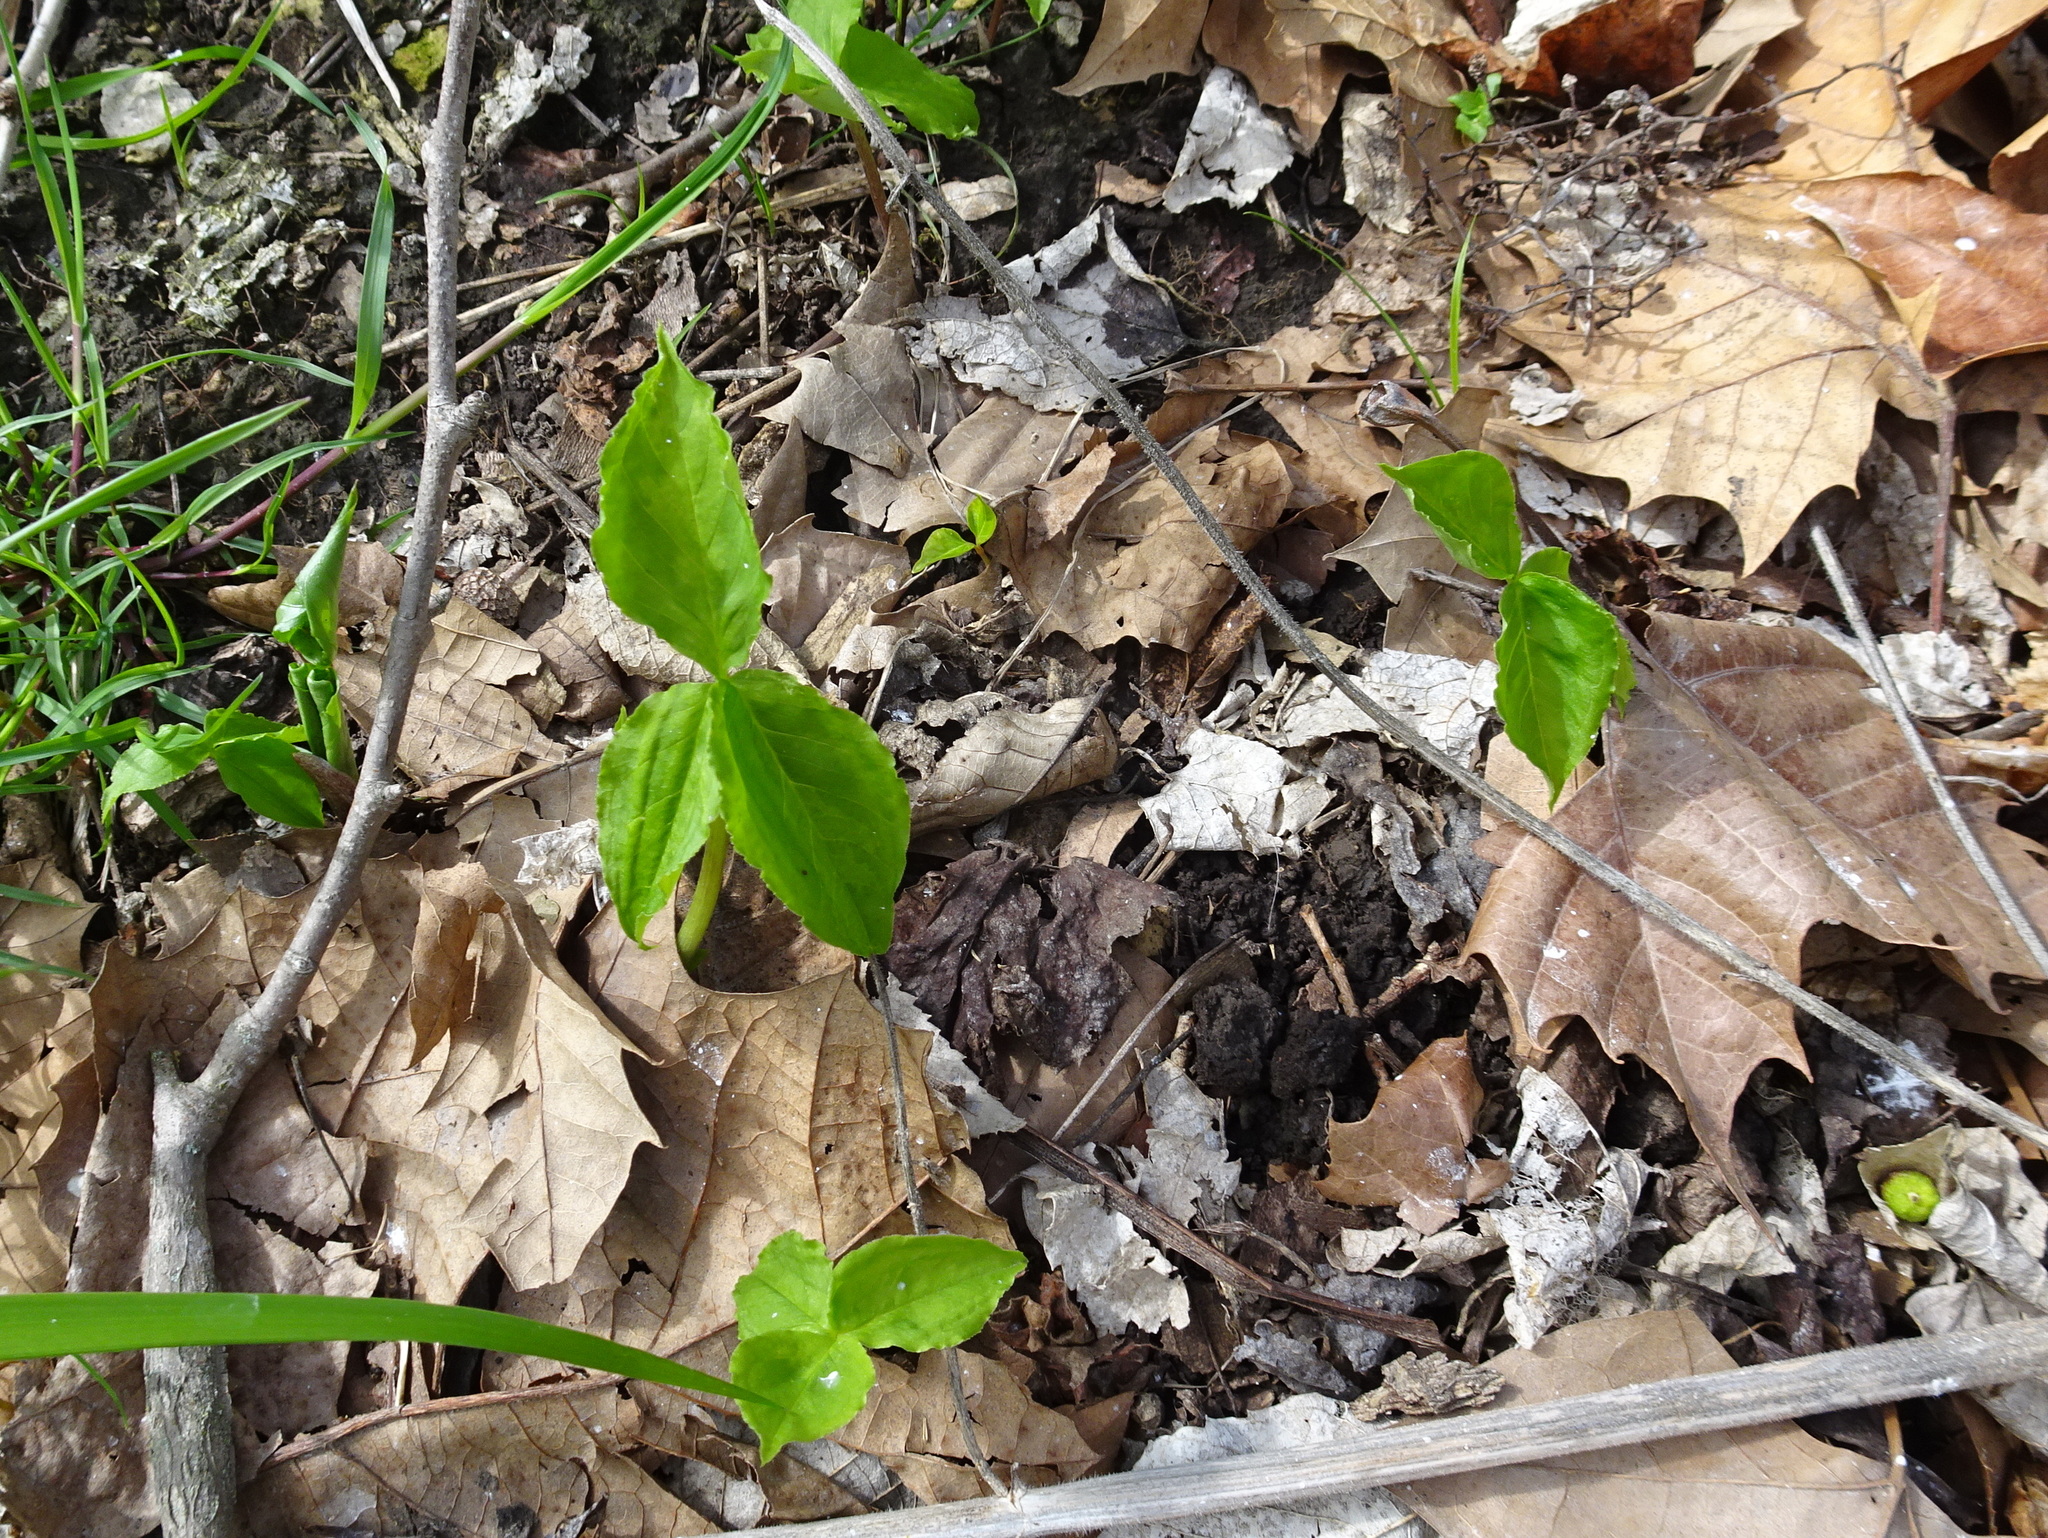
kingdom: Plantae
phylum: Tracheophyta
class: Liliopsida
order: Alismatales
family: Araceae
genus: Arisaema
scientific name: Arisaema triphyllum
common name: Jack-in-the-pulpit
